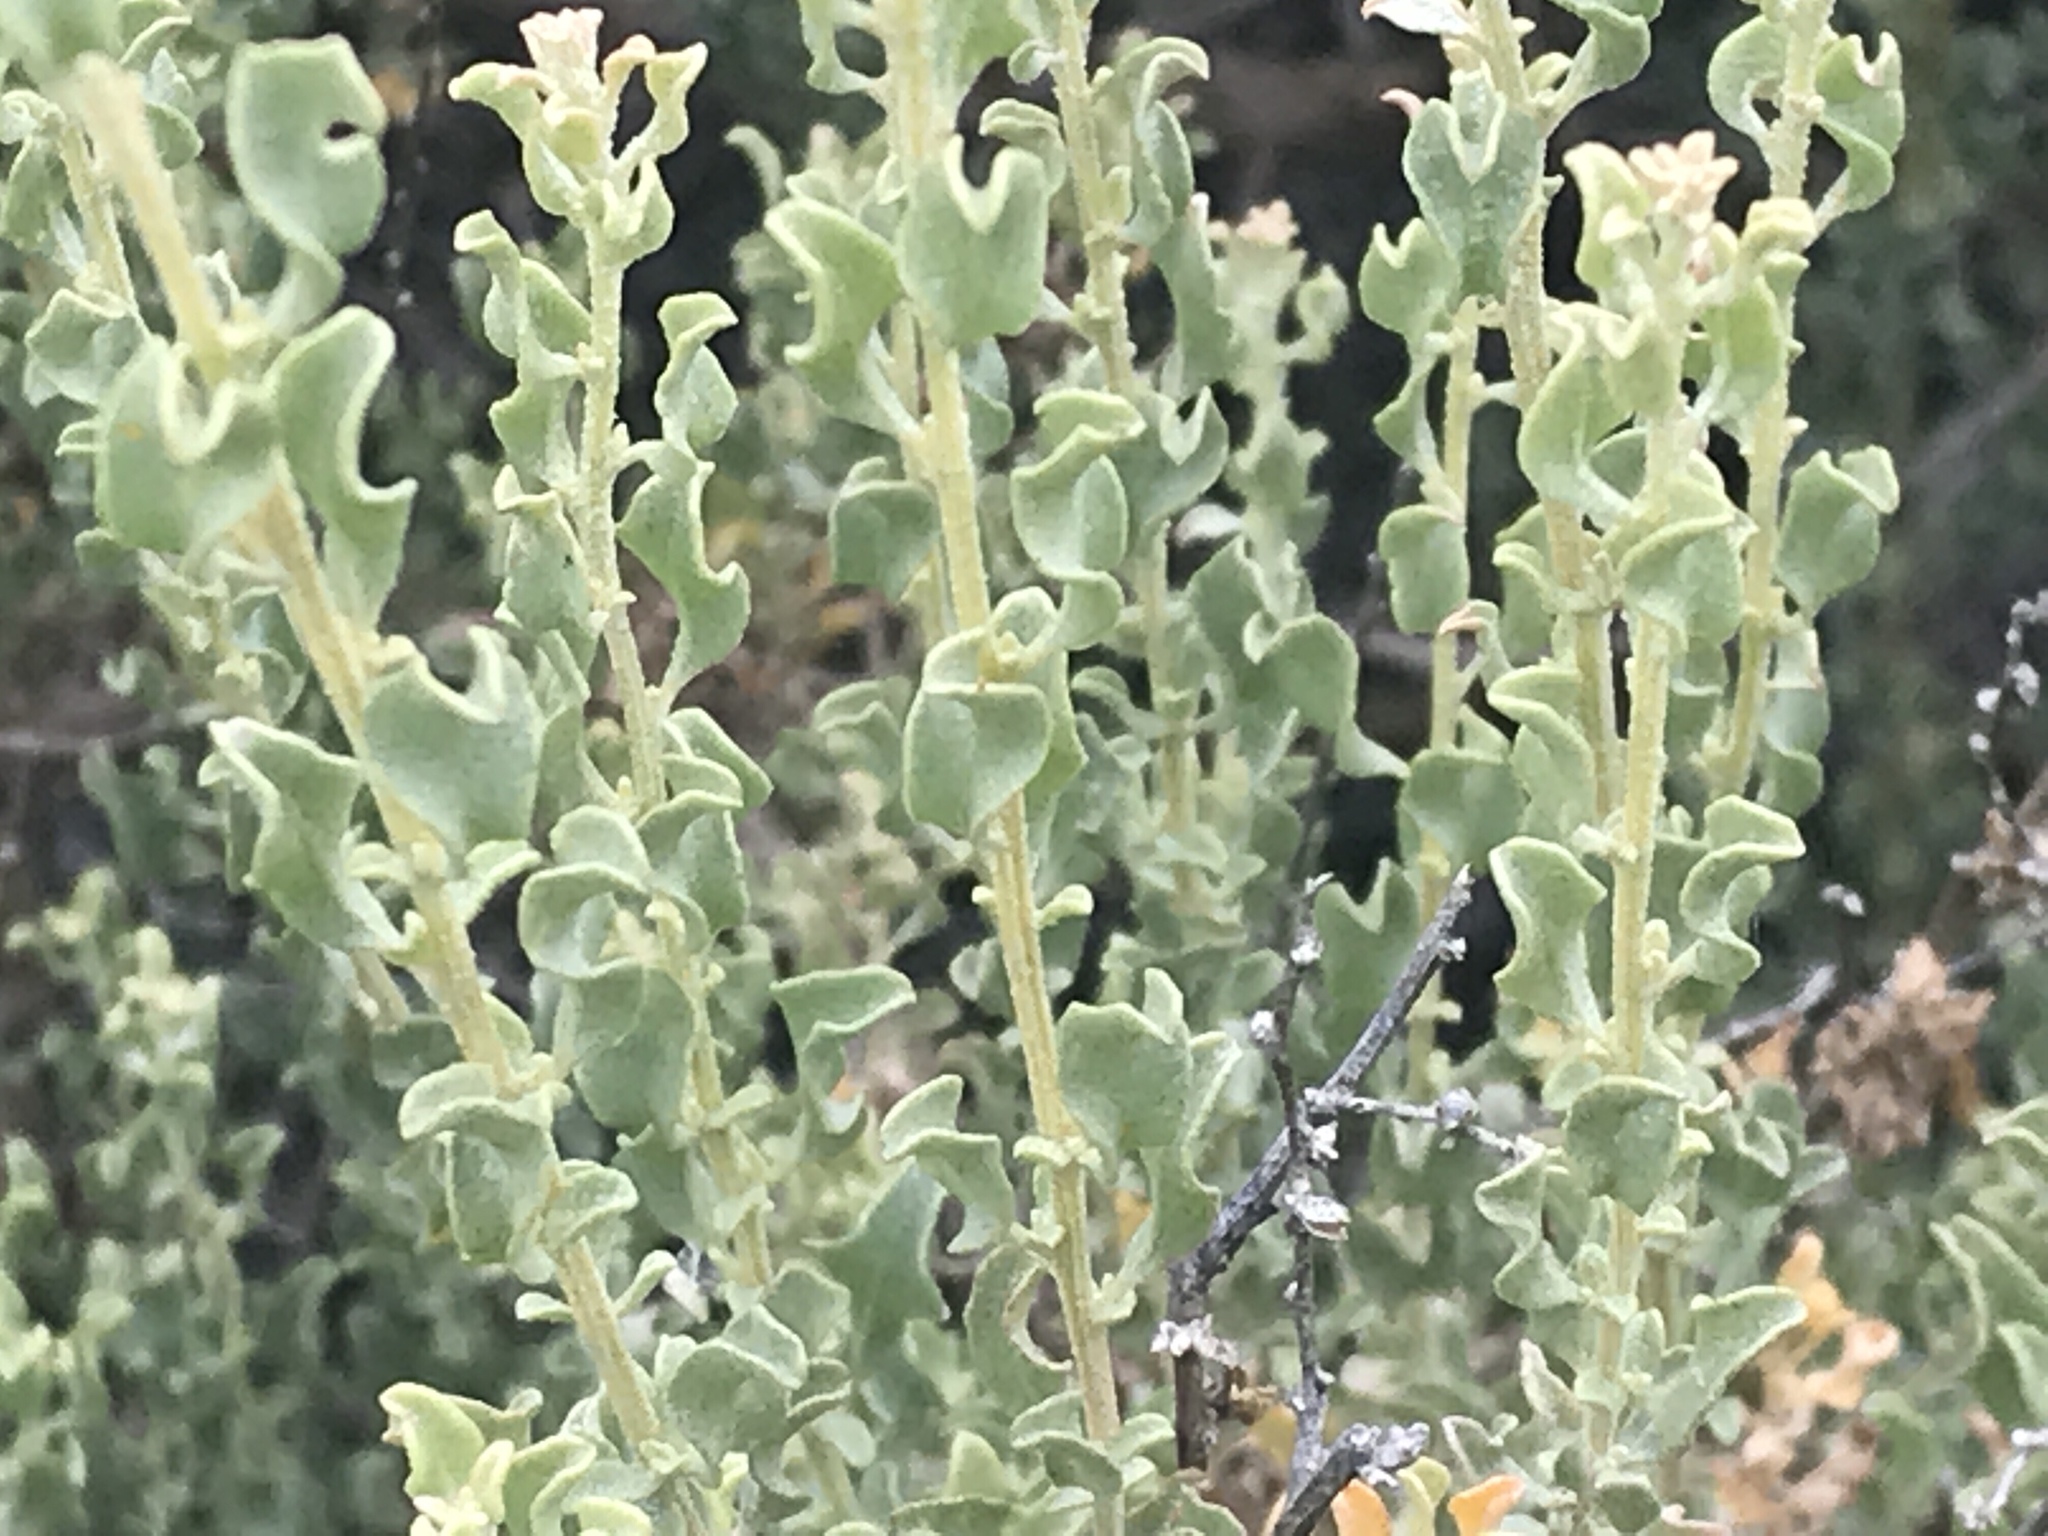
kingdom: Plantae
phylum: Tracheophyta
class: Magnoliopsida
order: Caryophyllales
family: Amaranthaceae
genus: Atriplex
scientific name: Atriplex undulata
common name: Wavy-leaved saltbush
